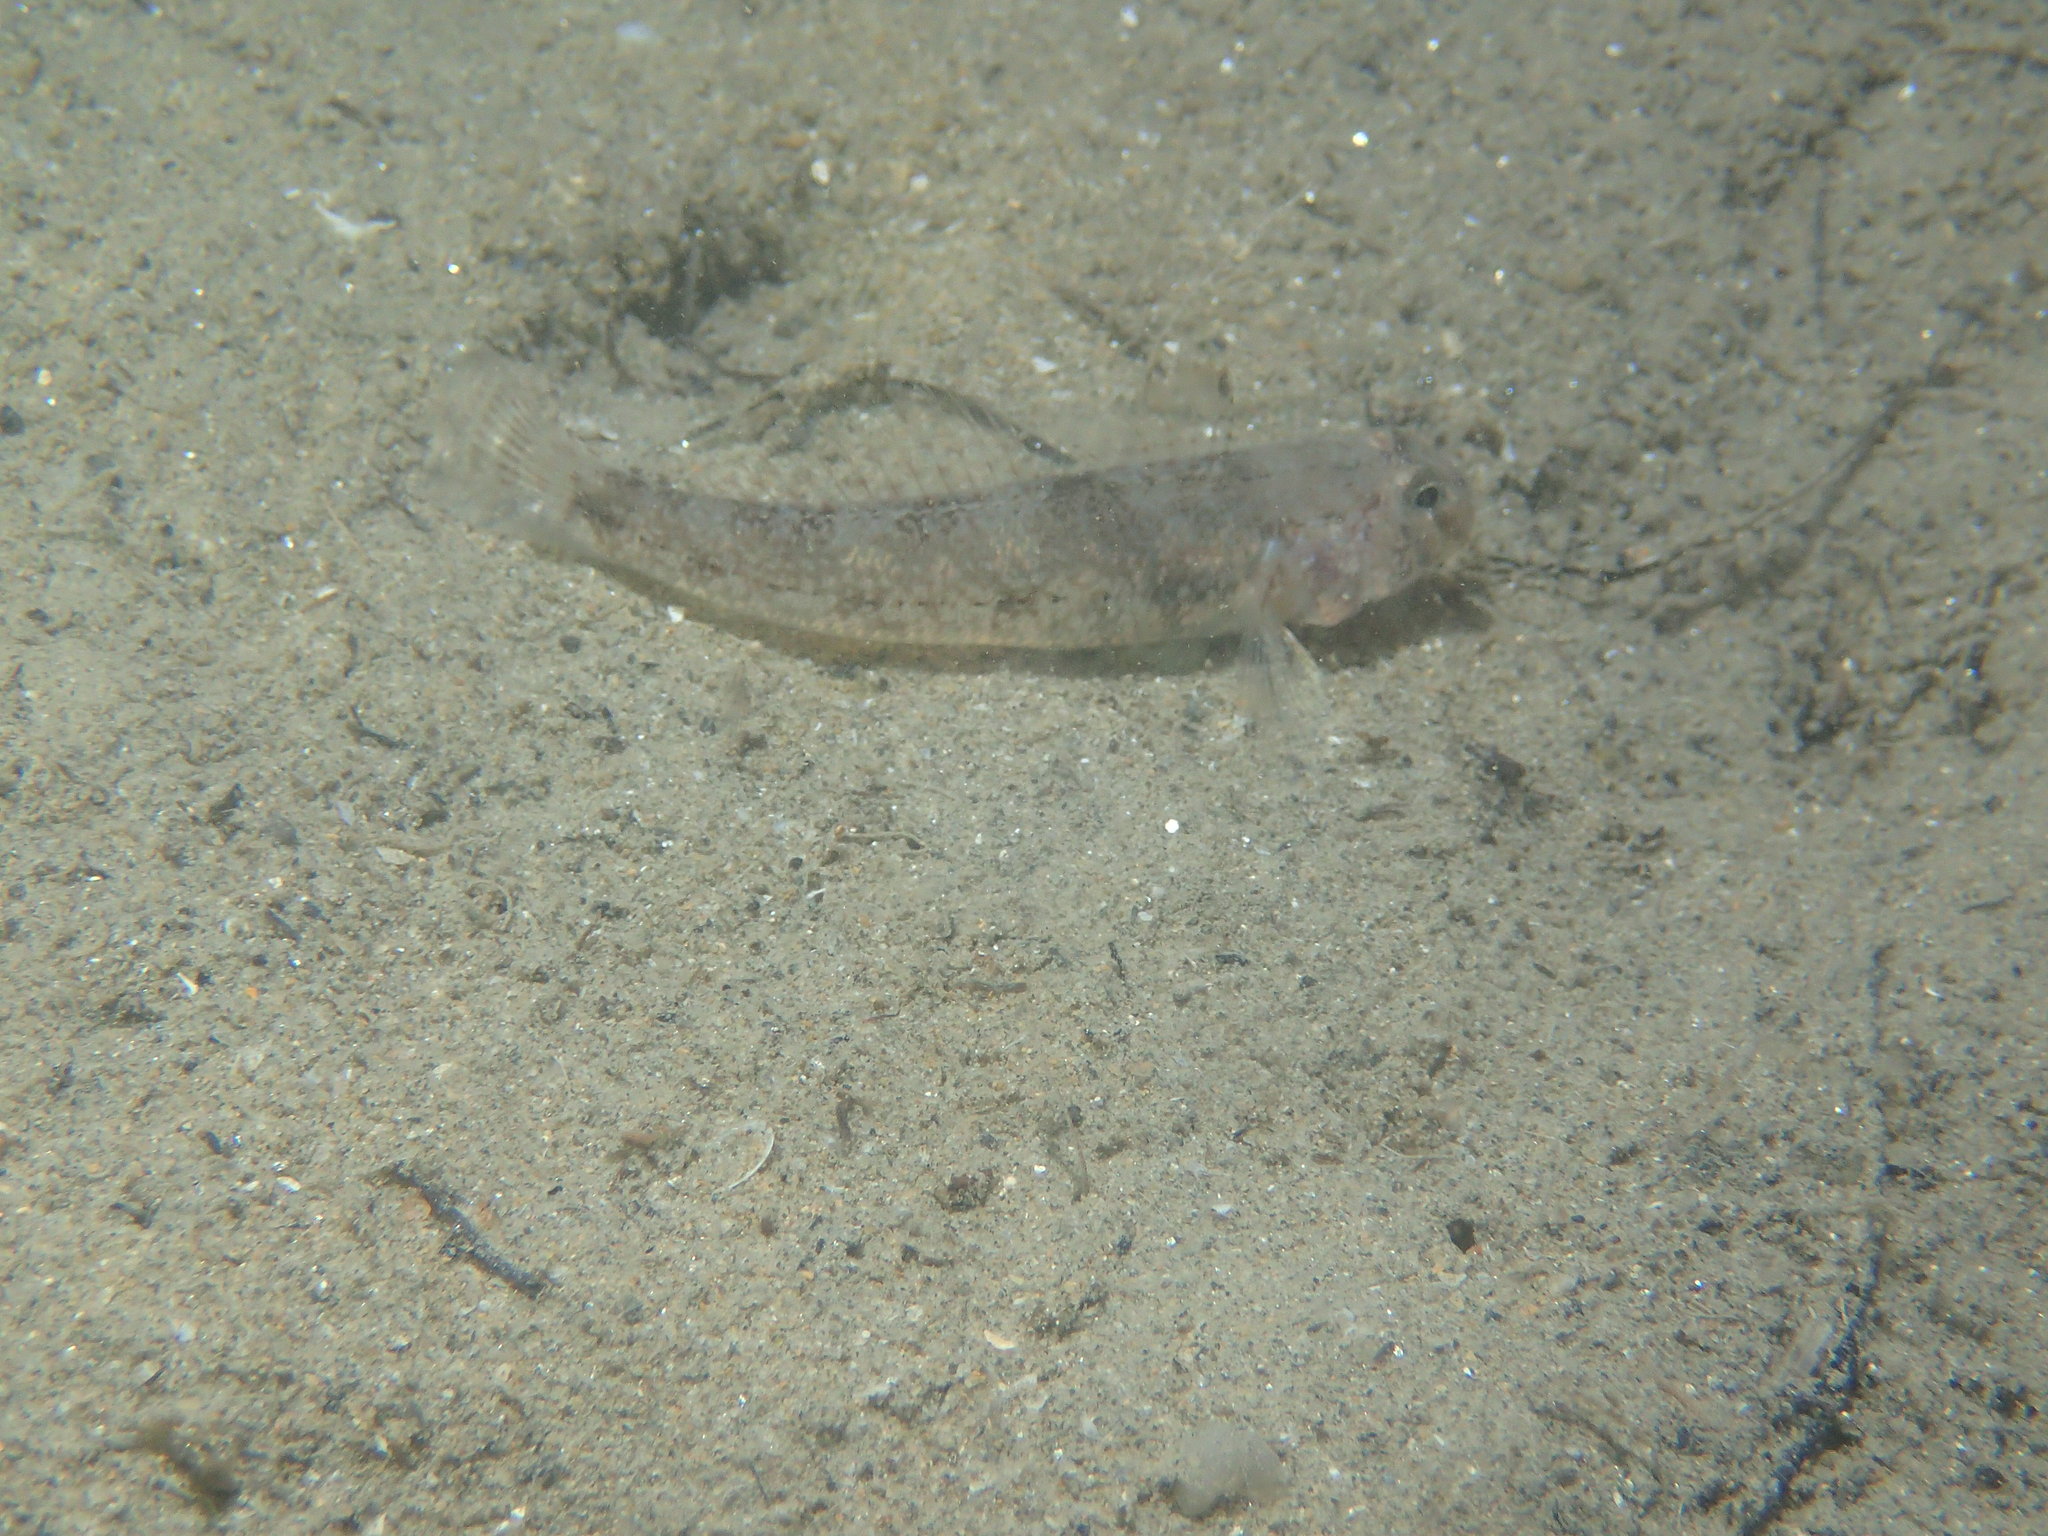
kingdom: Animalia
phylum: Chordata
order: Perciformes
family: Gobiidae
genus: Gobius
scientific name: Gobius niger
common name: Black goby
